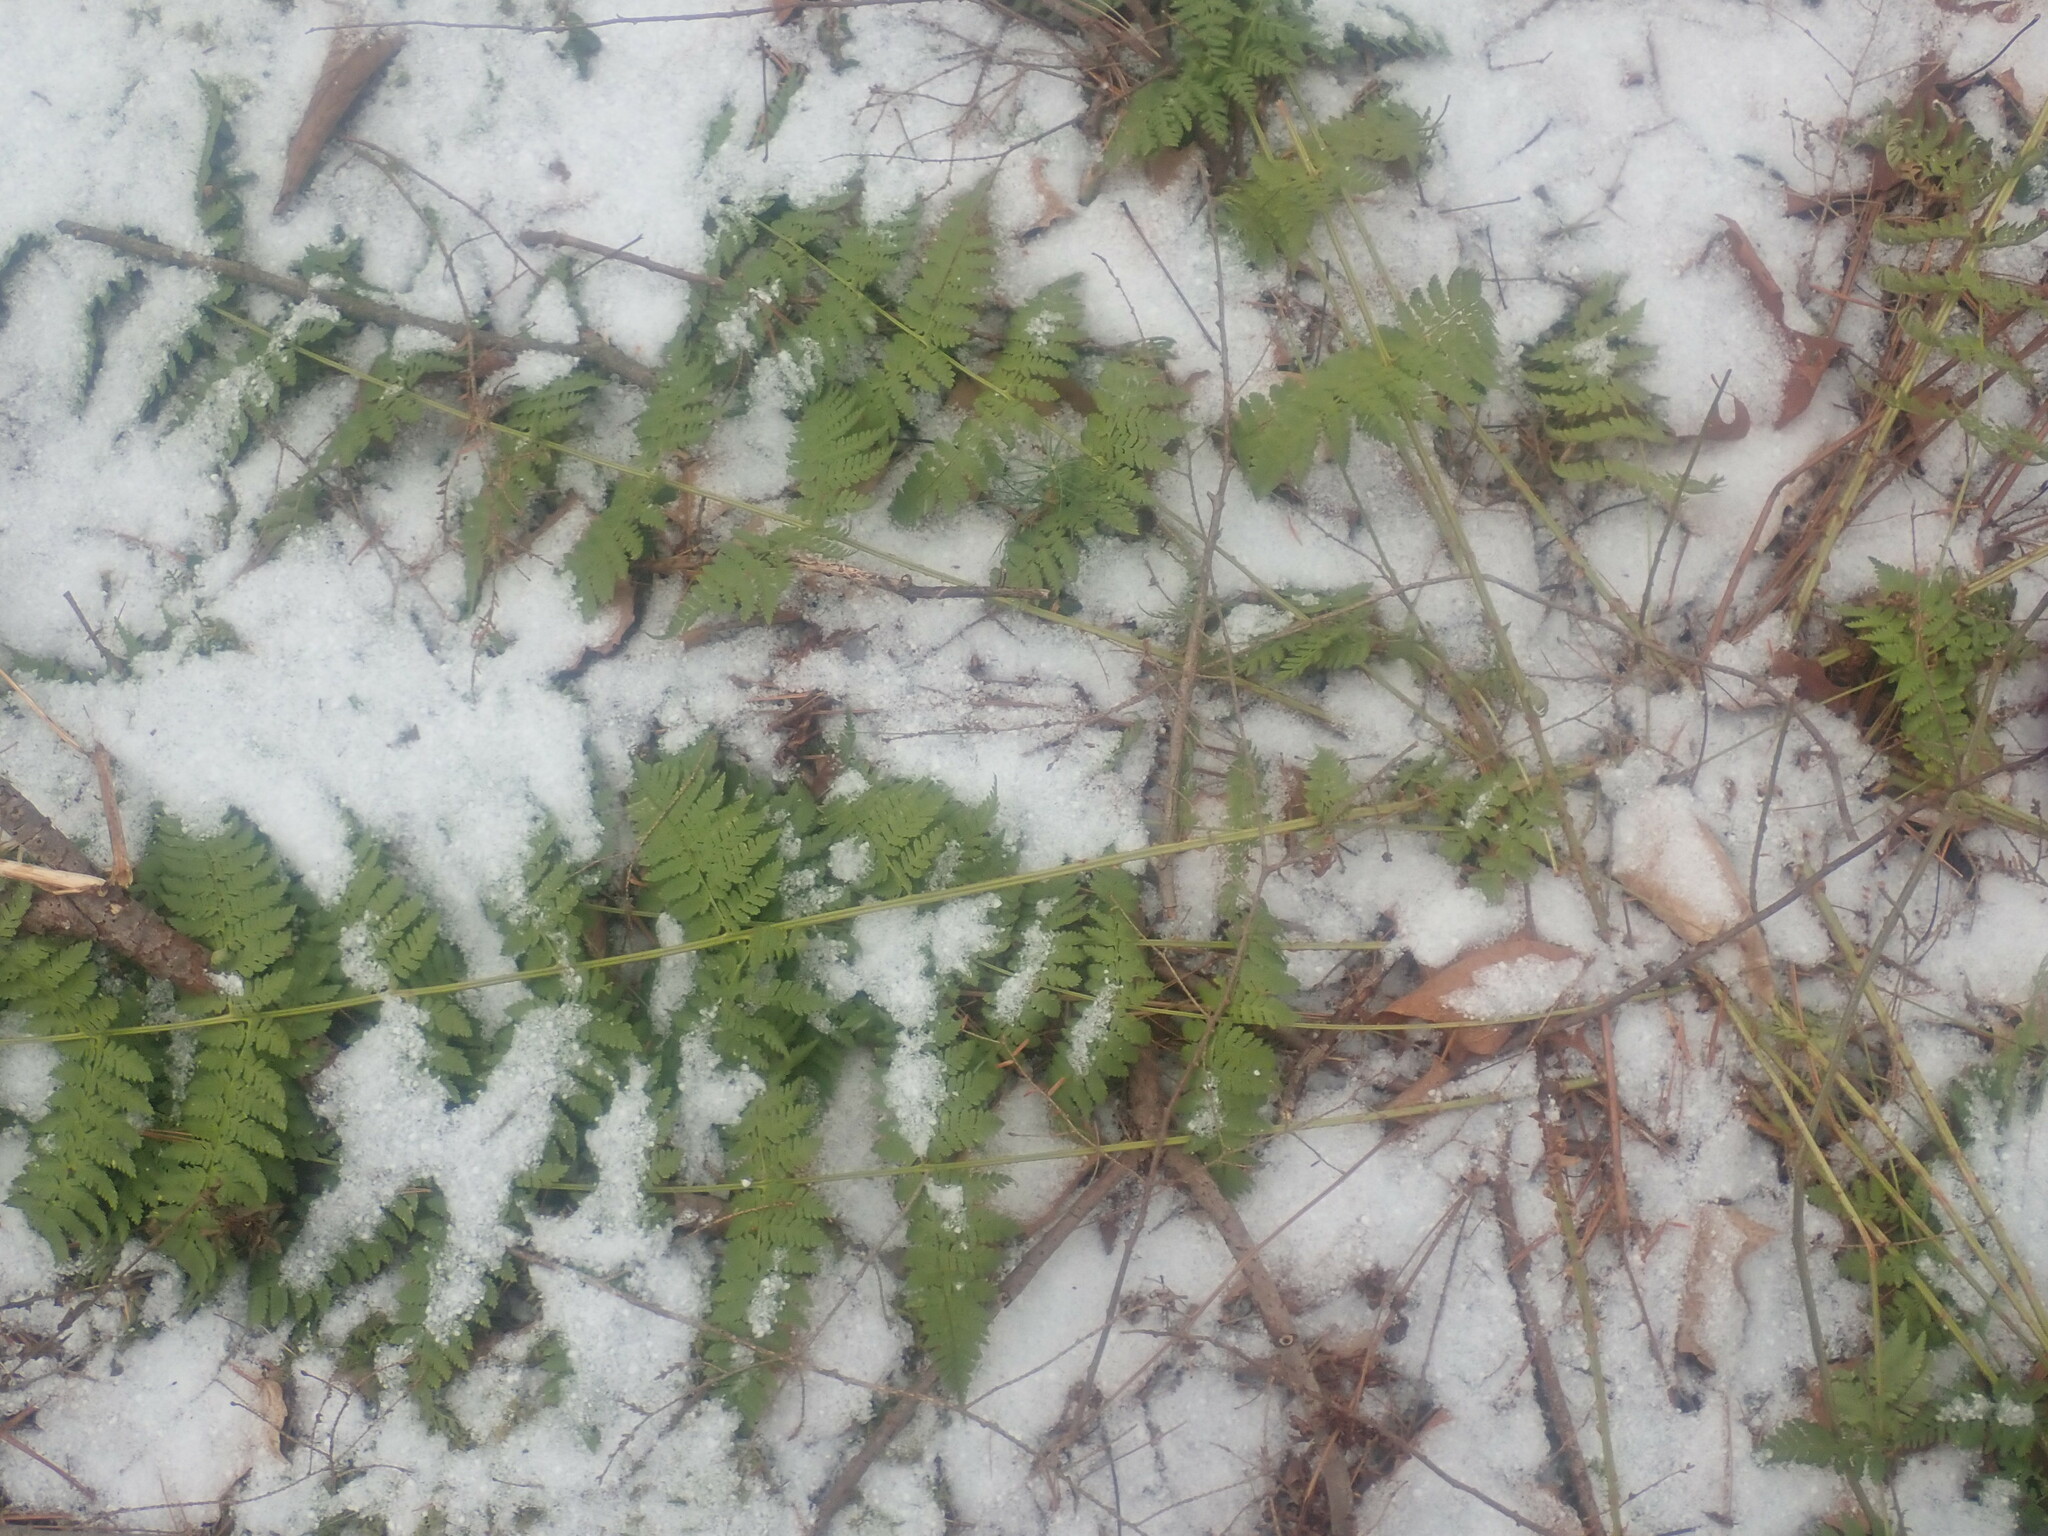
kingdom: Plantae
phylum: Tracheophyta
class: Polypodiopsida
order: Polypodiales
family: Dryopteridaceae
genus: Dryopteris
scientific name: Dryopteris intermedia
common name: Evergreen wood fern
